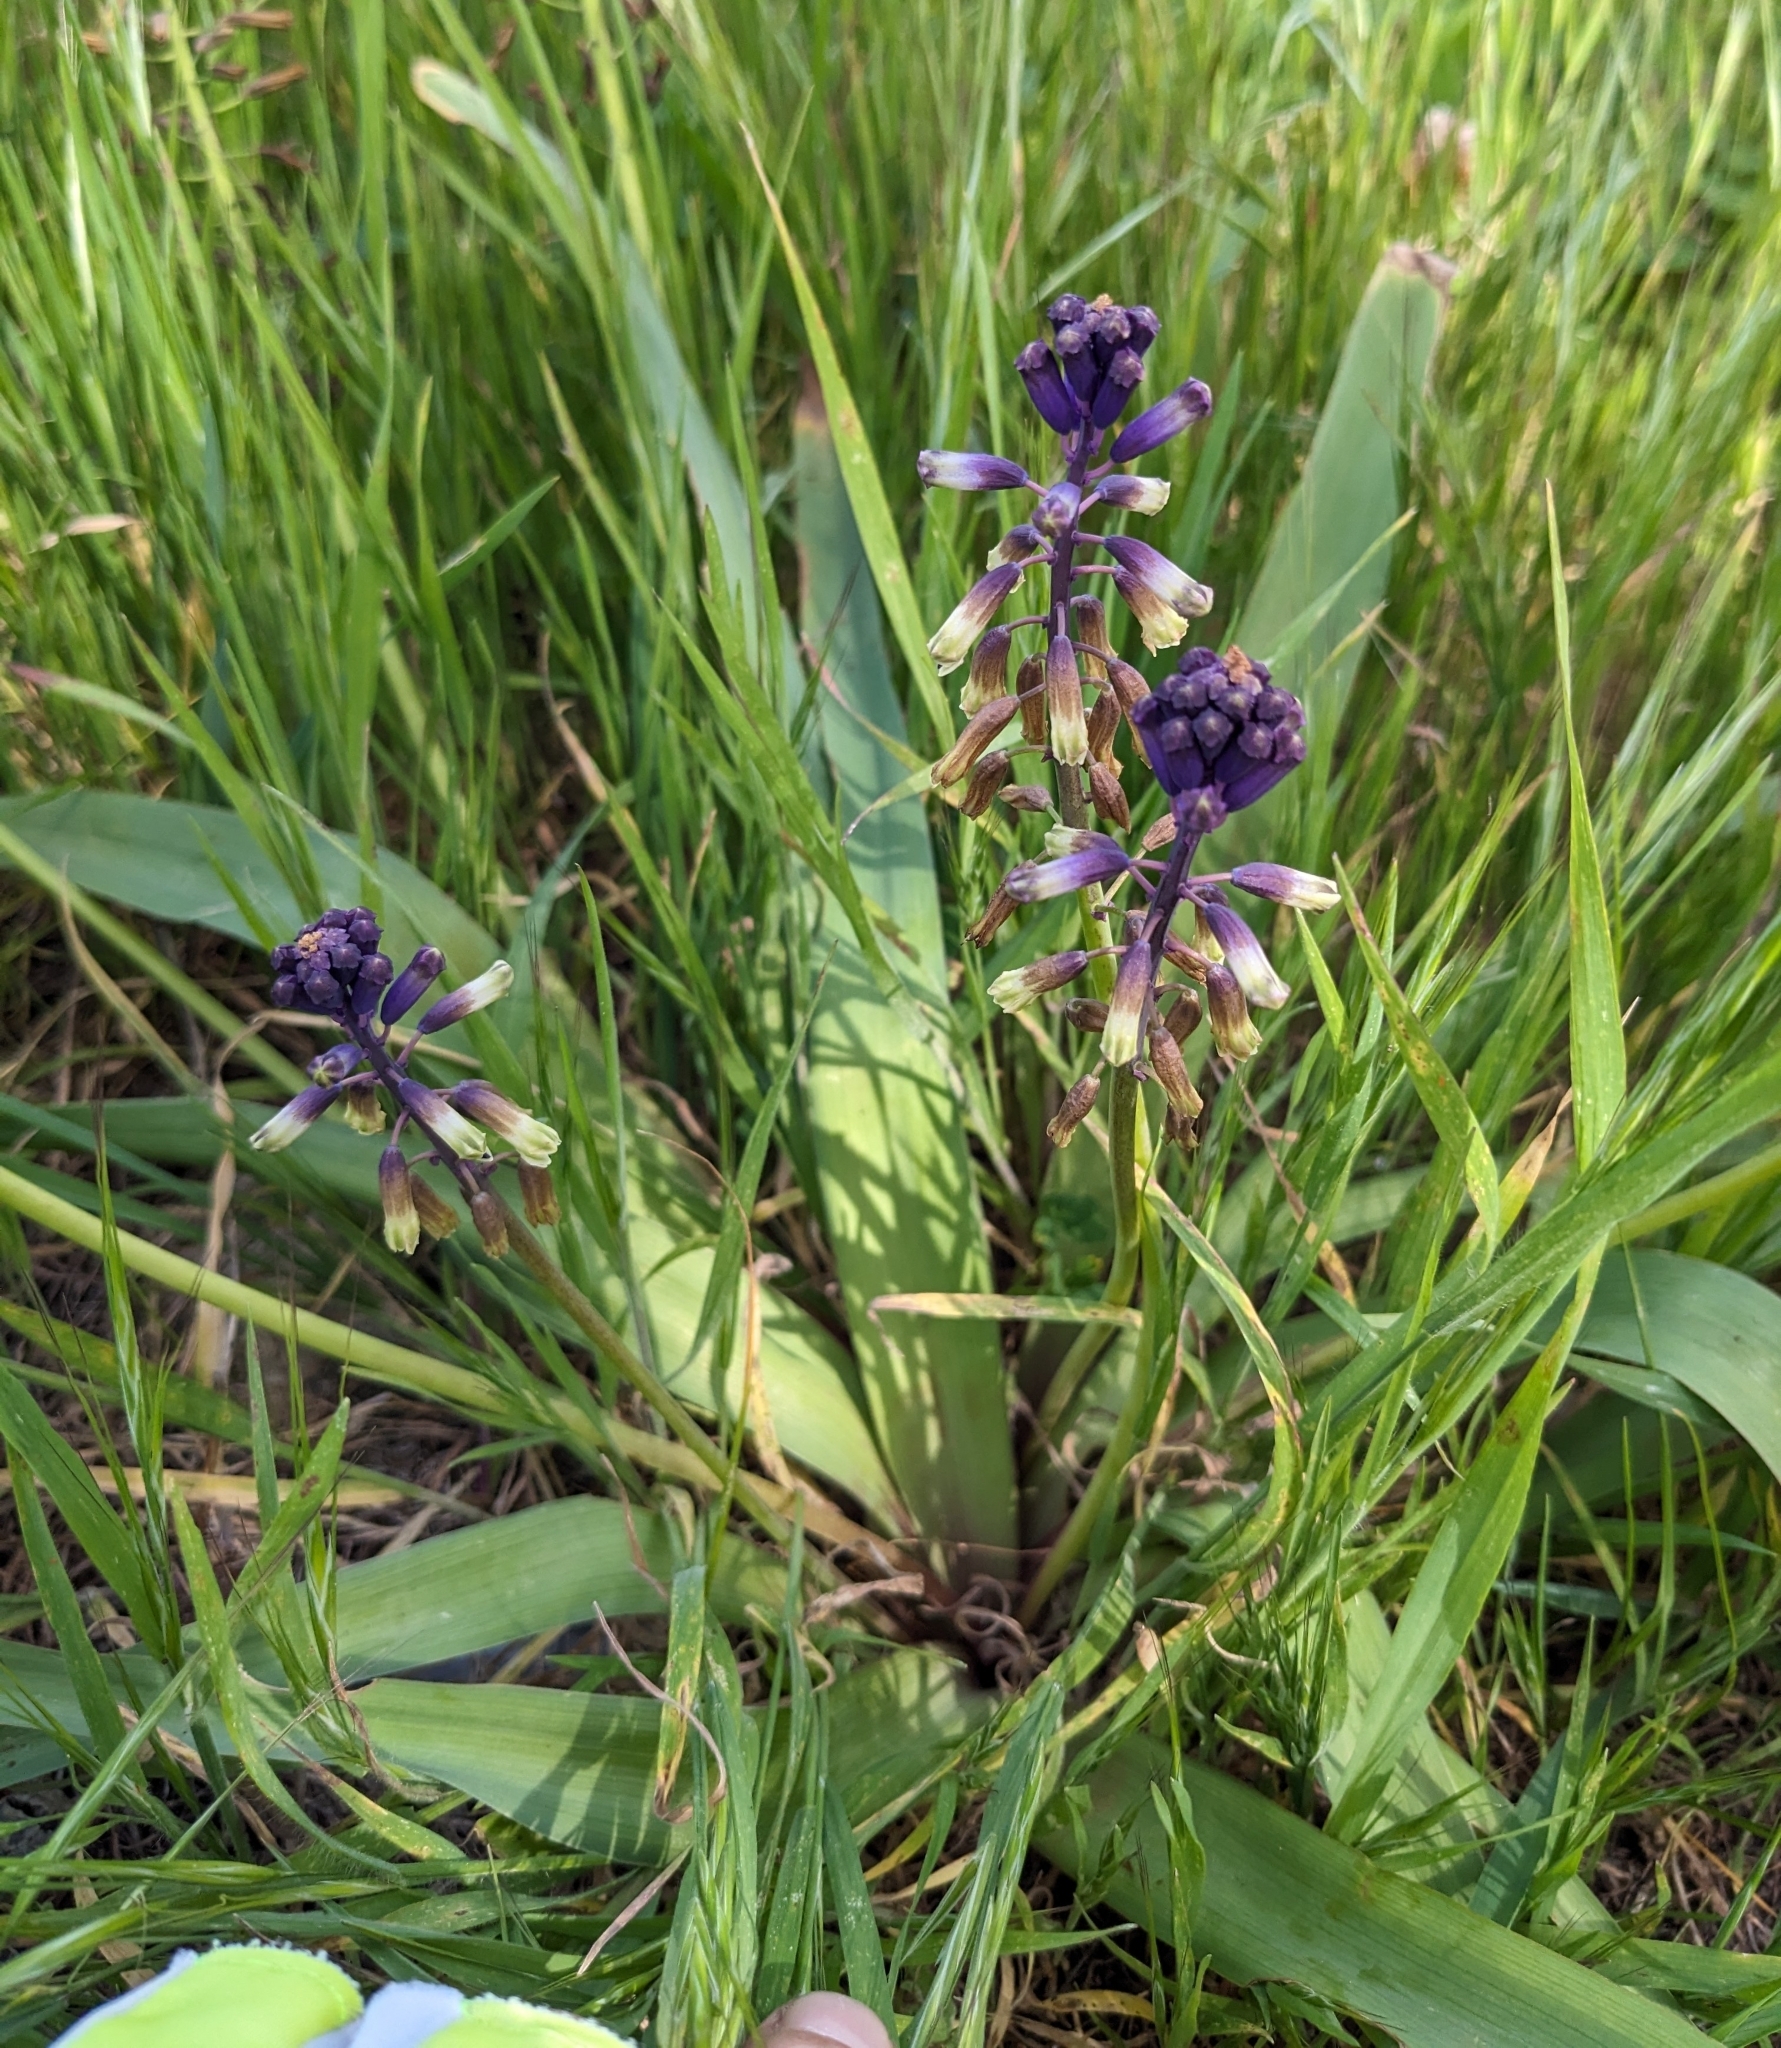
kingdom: Plantae
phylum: Tracheophyta
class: Liliopsida
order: Asparagales
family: Asparagaceae
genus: Bellevalia
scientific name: Bellevalia trifoliata
